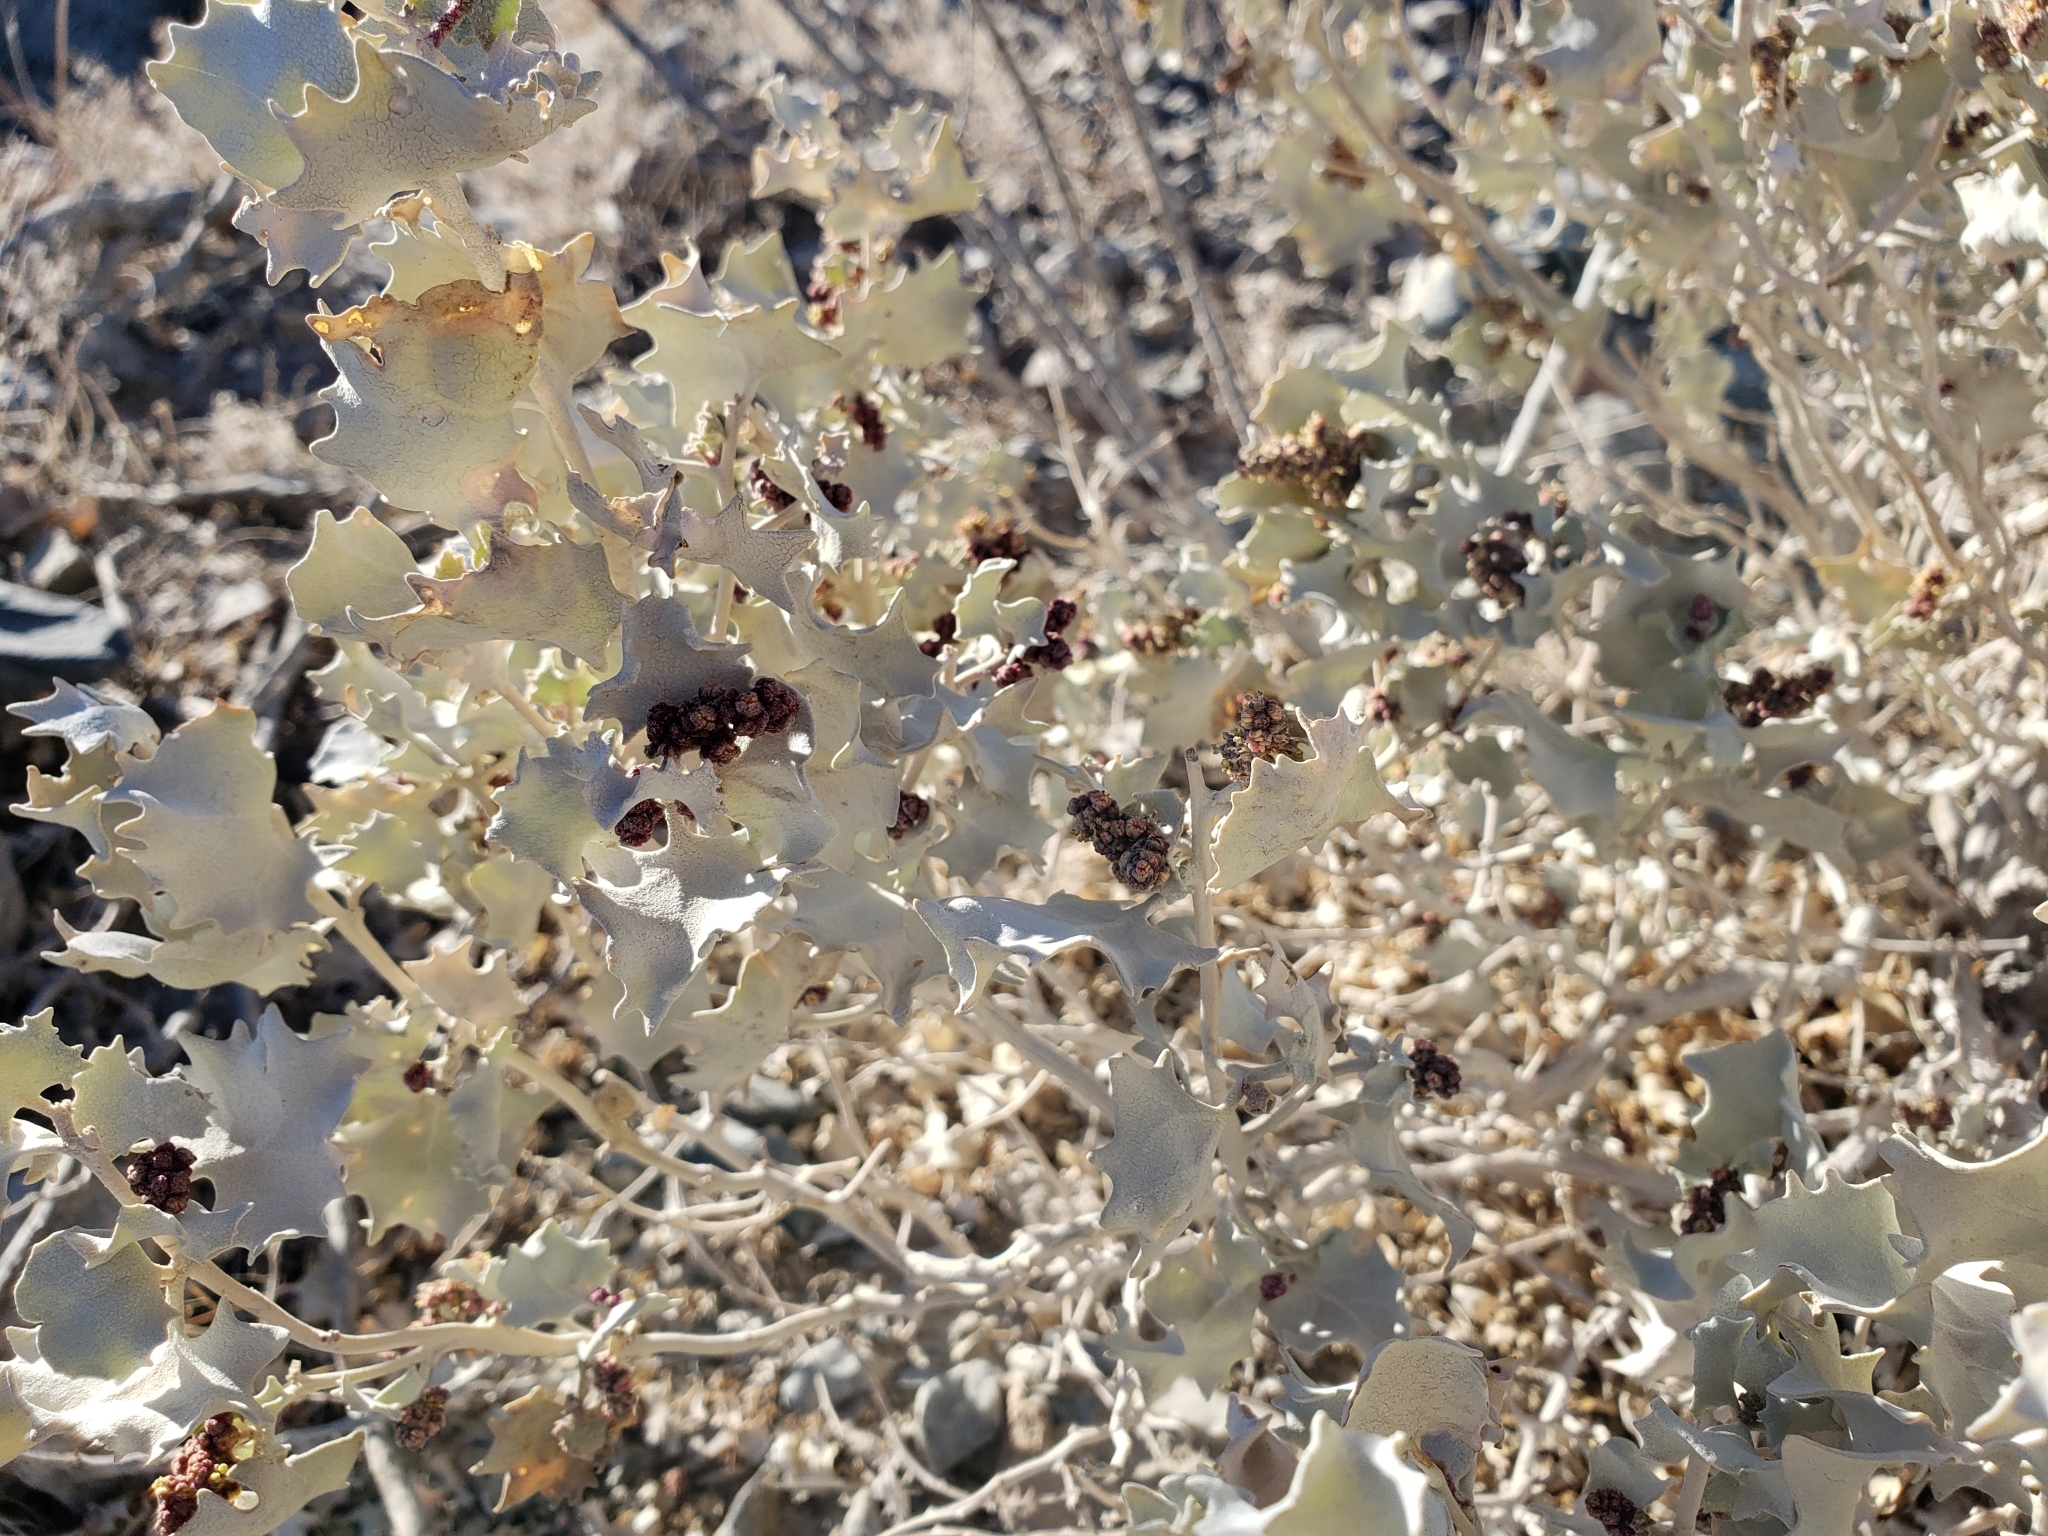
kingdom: Plantae
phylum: Tracheophyta
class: Magnoliopsida
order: Caryophyllales
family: Amaranthaceae
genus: Atriplex
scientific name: Atriplex hymenelytra
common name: Desert-holly
